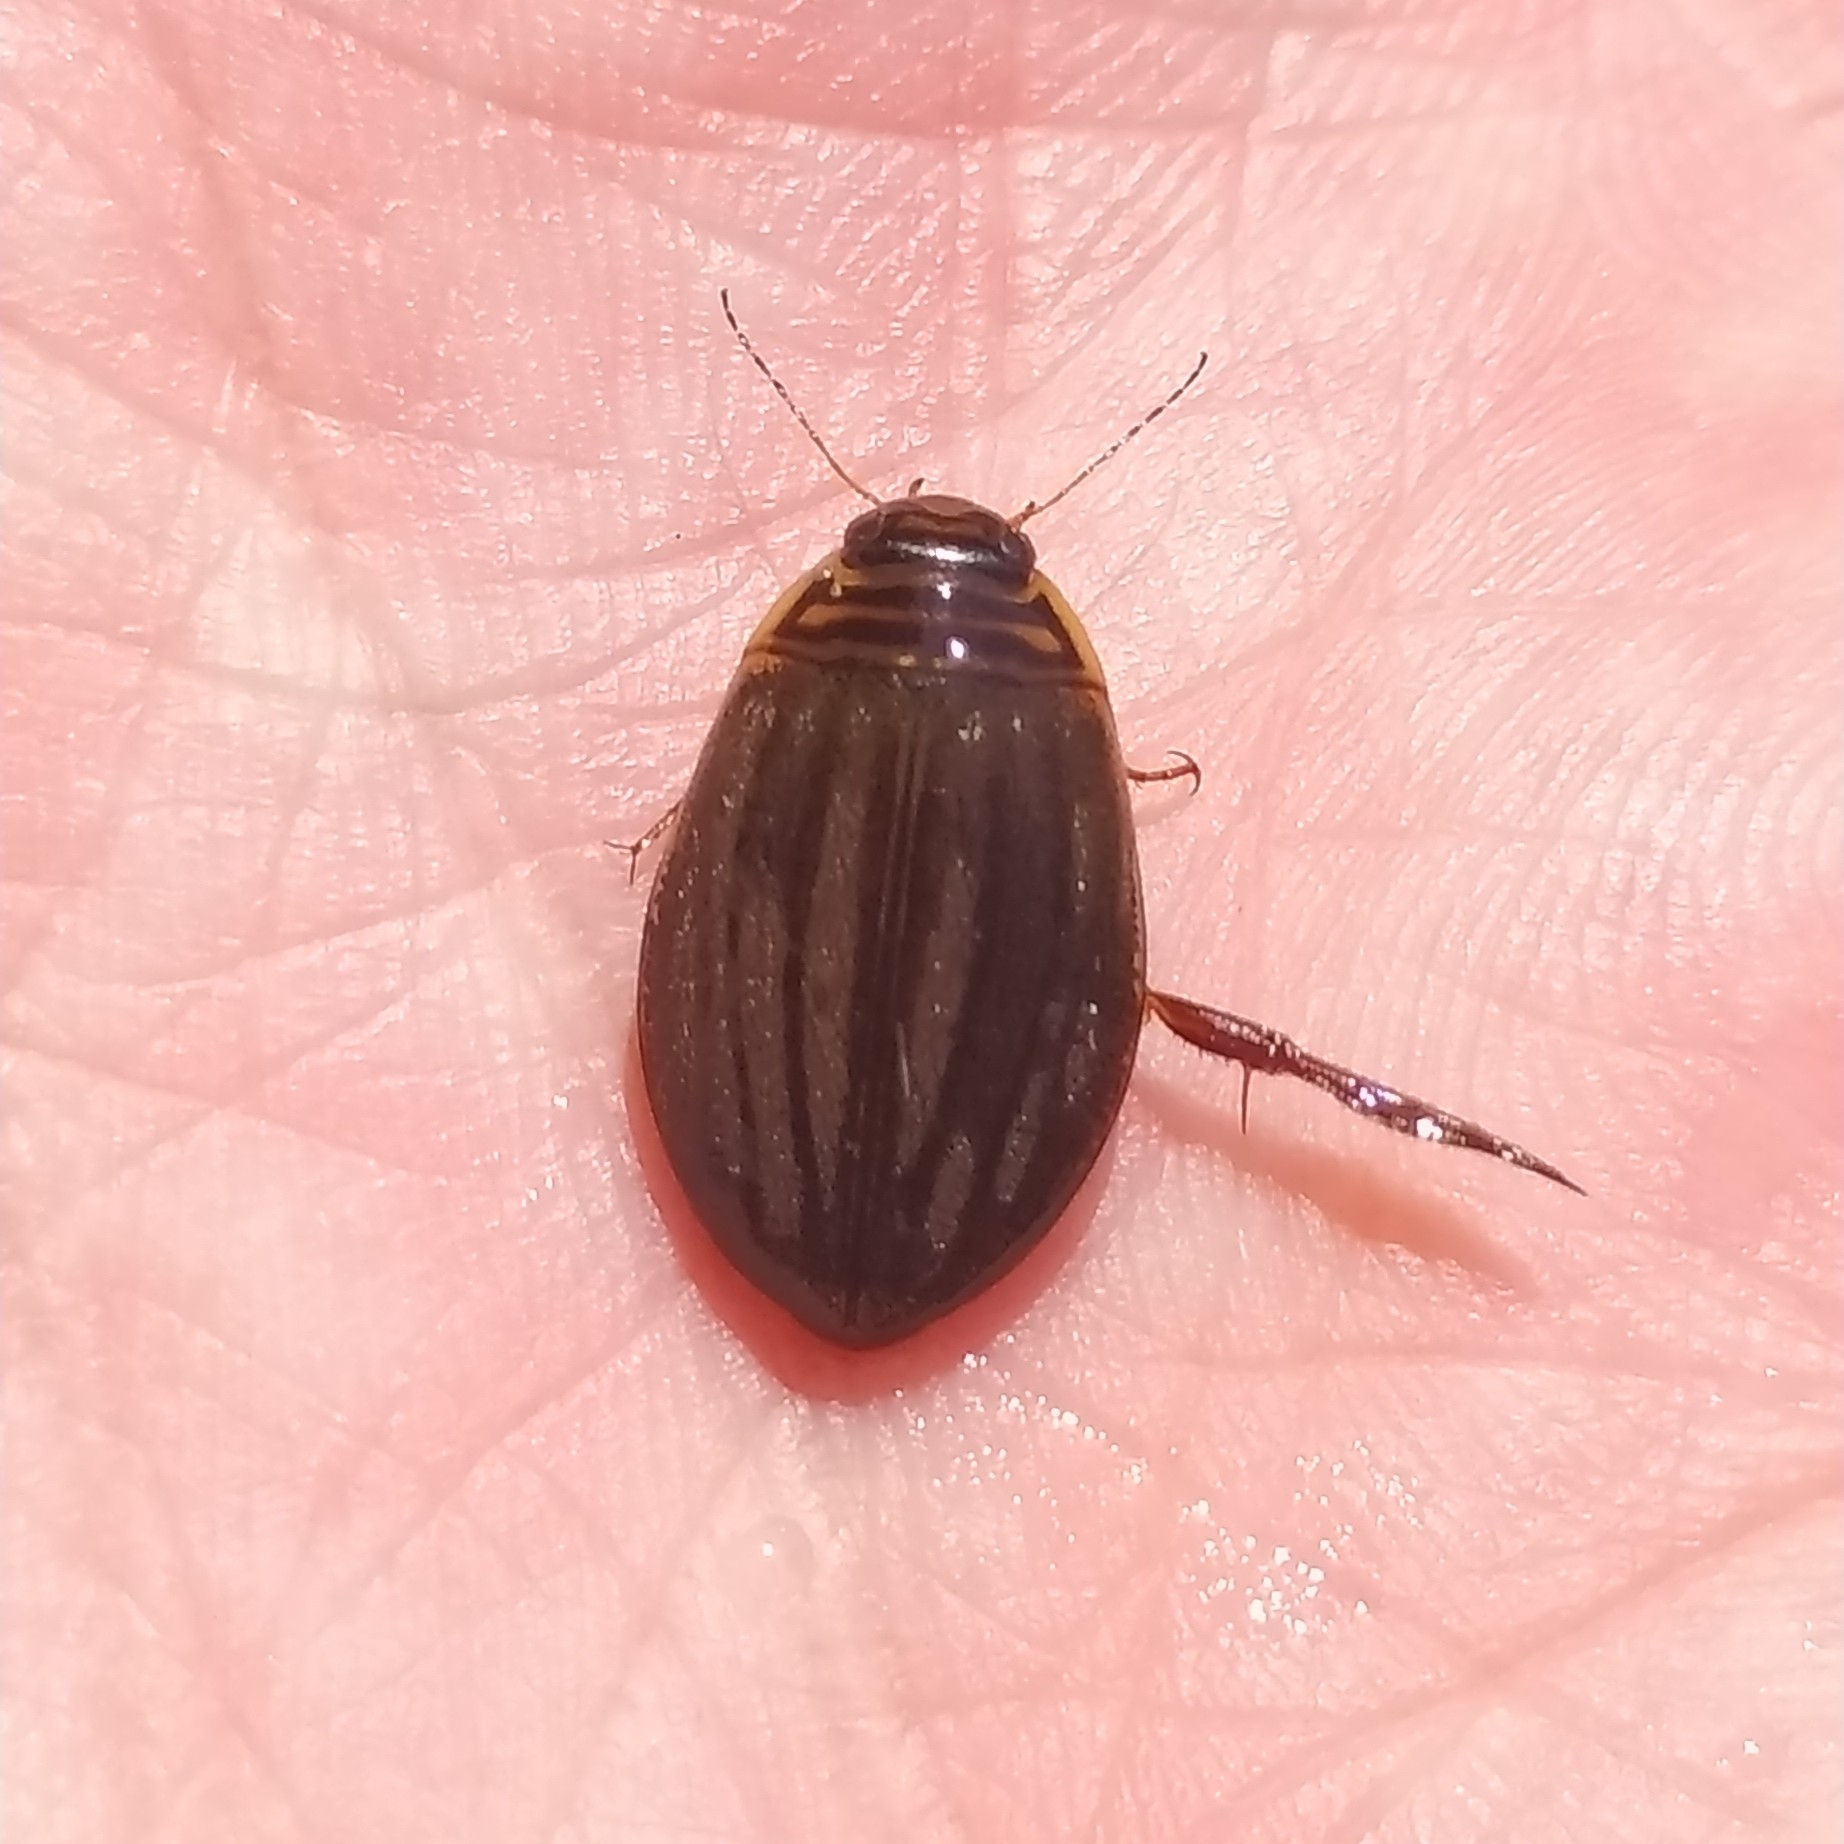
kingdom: Animalia
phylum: Arthropoda
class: Insecta
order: Coleoptera
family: Dytiscidae
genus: Acilius
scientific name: Acilius canaliculatus
